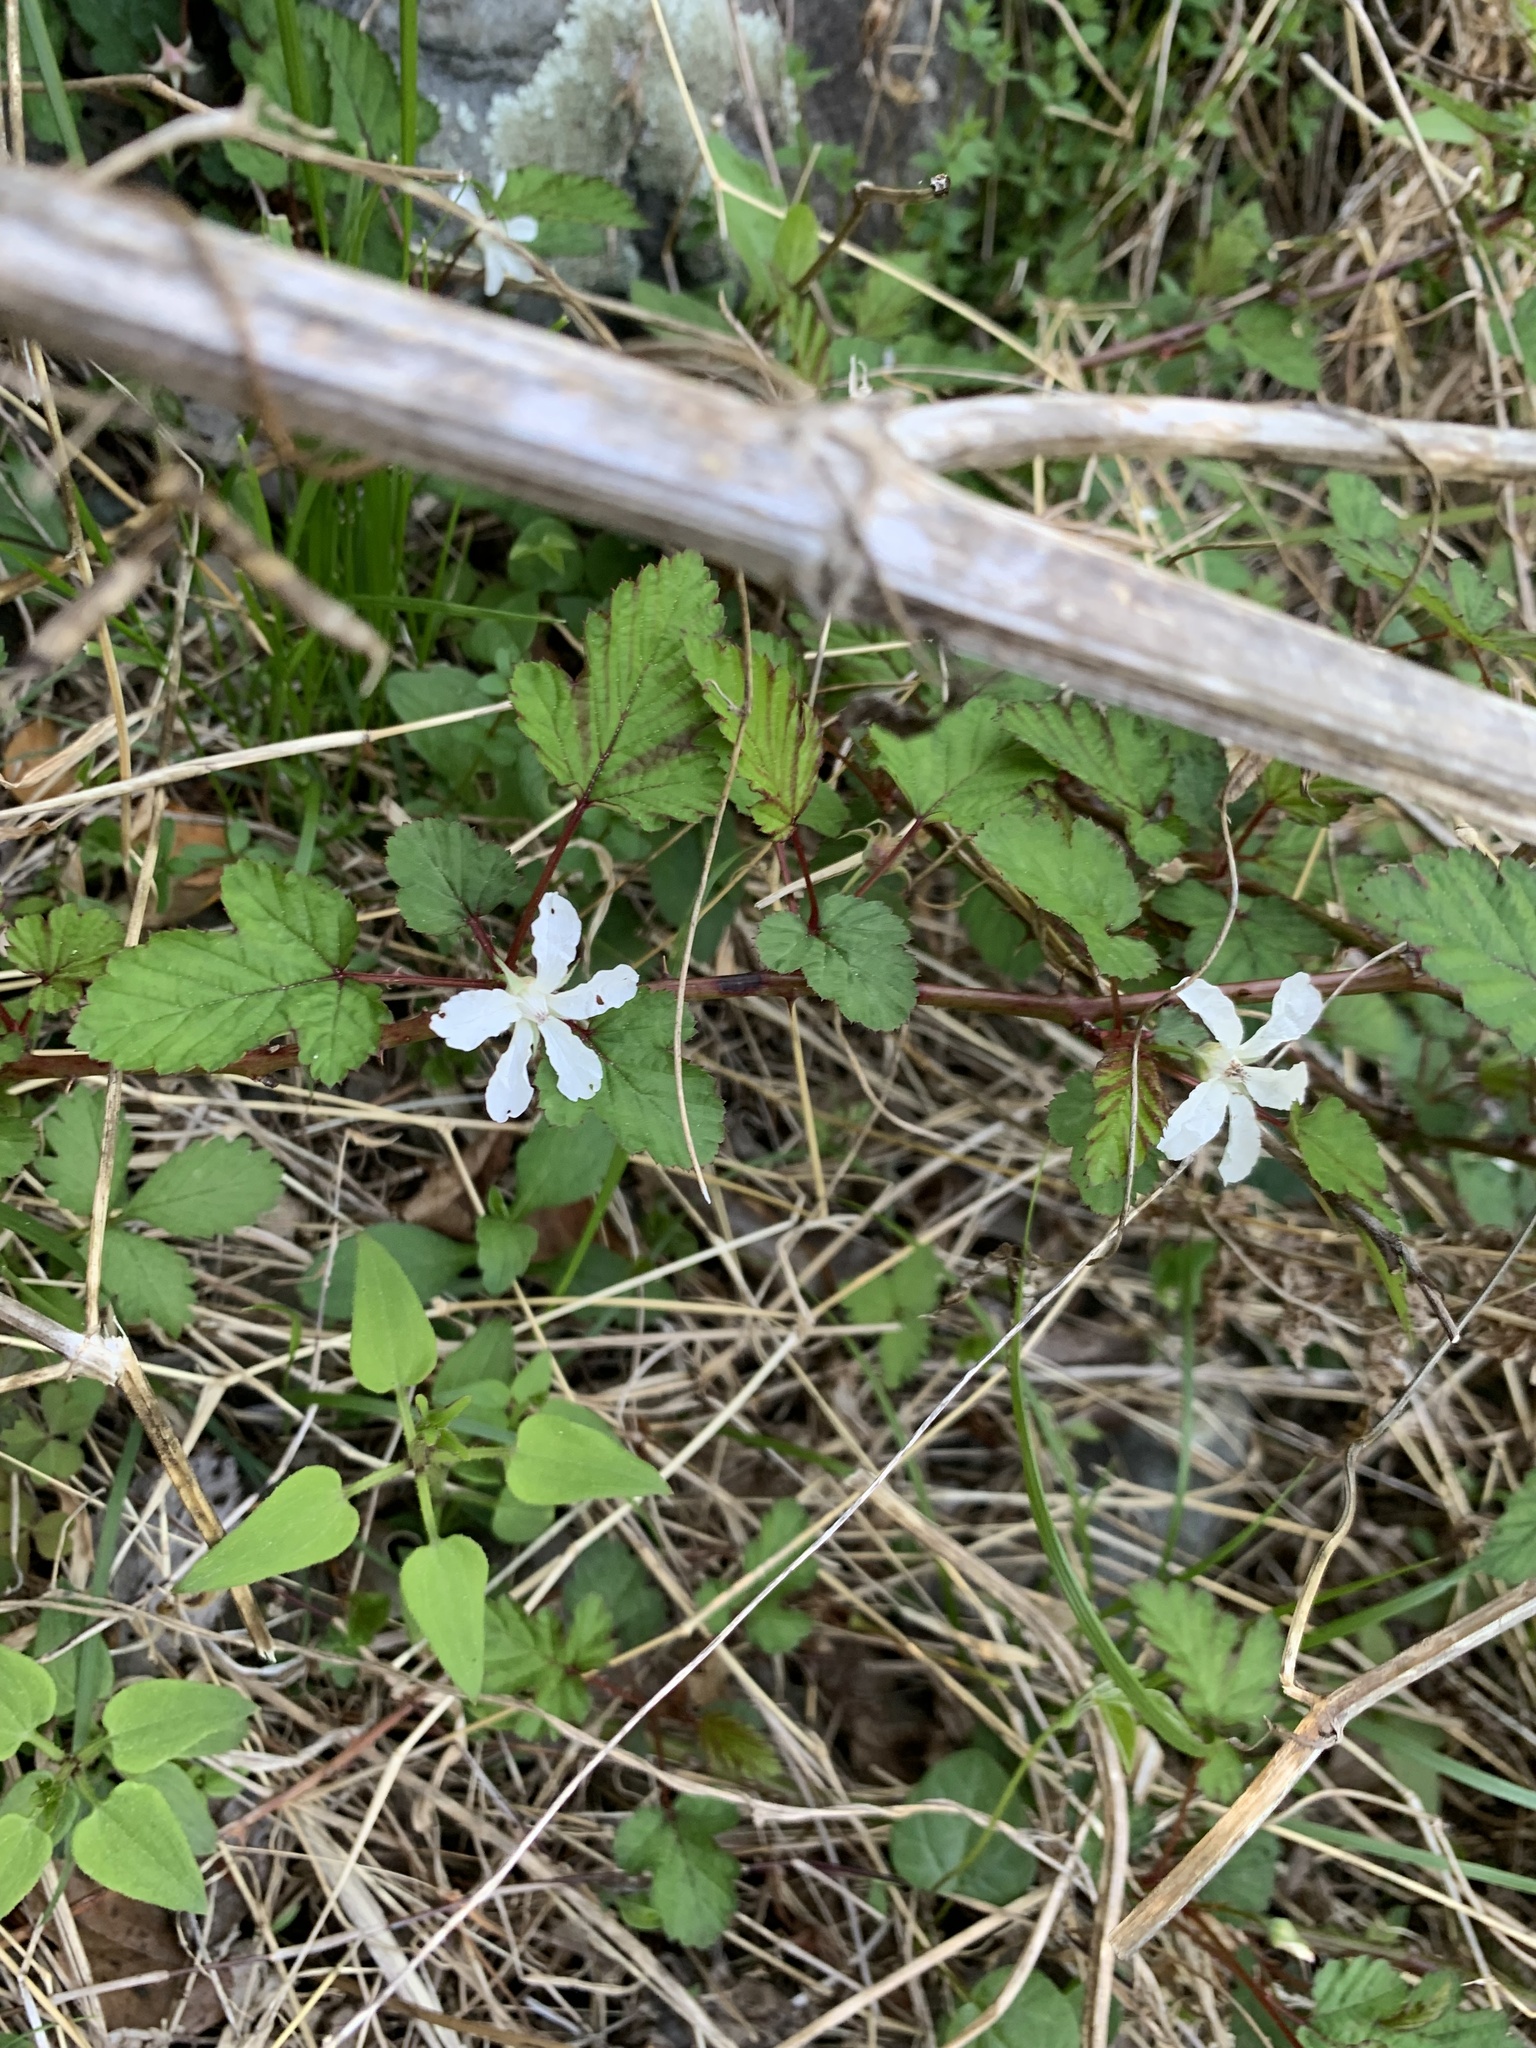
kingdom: Plantae
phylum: Tracheophyta
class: Magnoliopsida
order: Rosales
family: Rosaceae
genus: Rubus
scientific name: Rubus microphyllus
